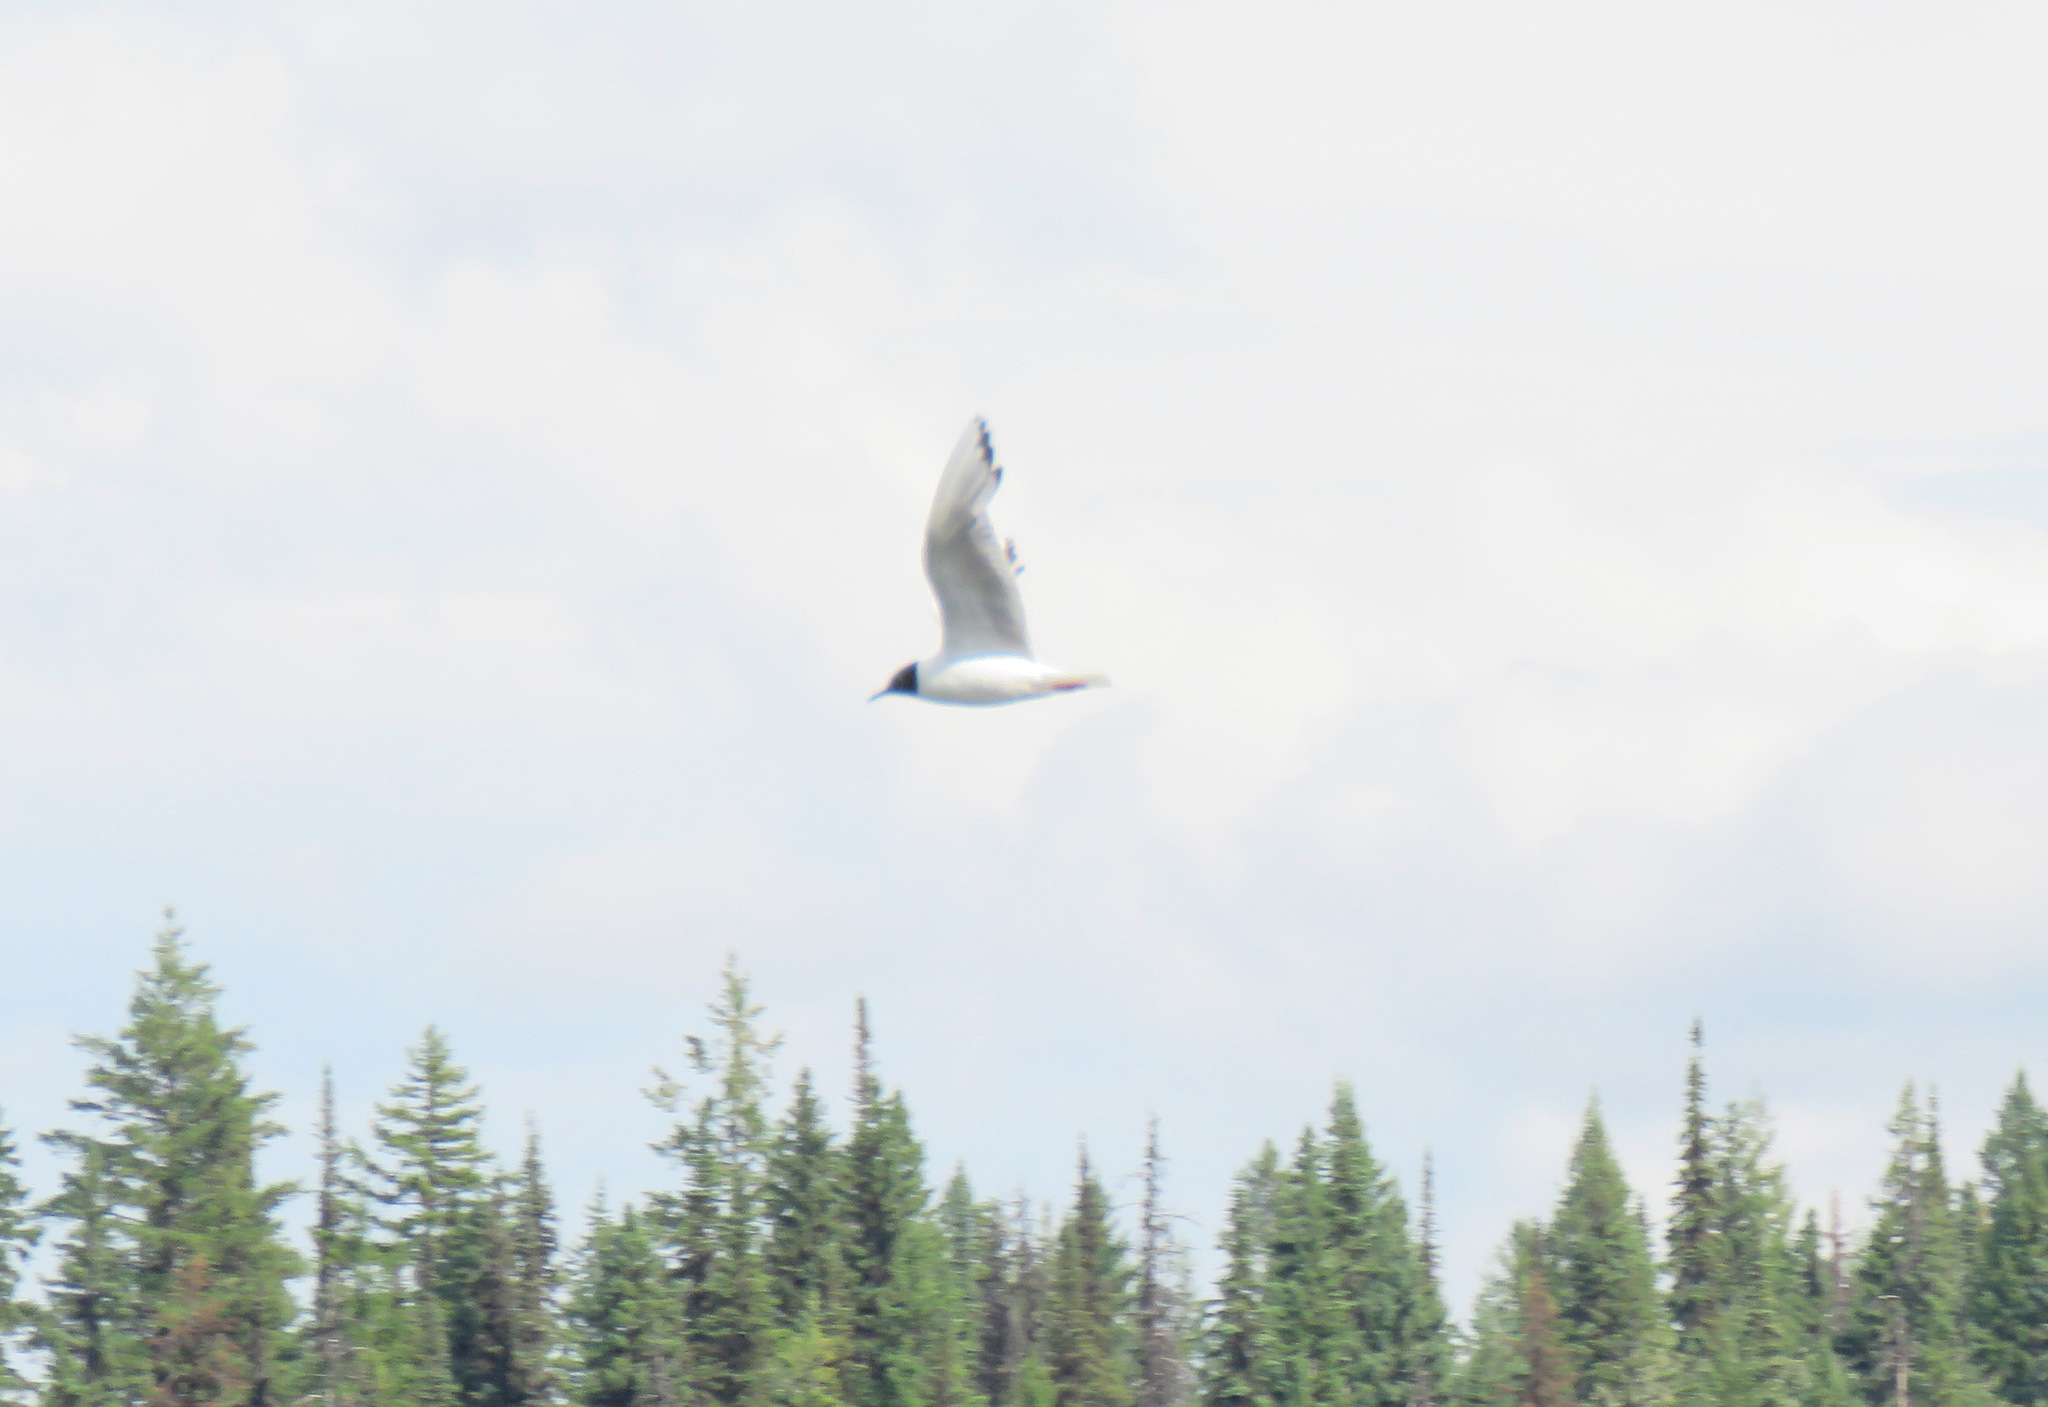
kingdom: Animalia
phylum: Chordata
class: Aves
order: Charadriiformes
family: Laridae
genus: Chroicocephalus
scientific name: Chroicocephalus philadelphia
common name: Bonaparte's gull
